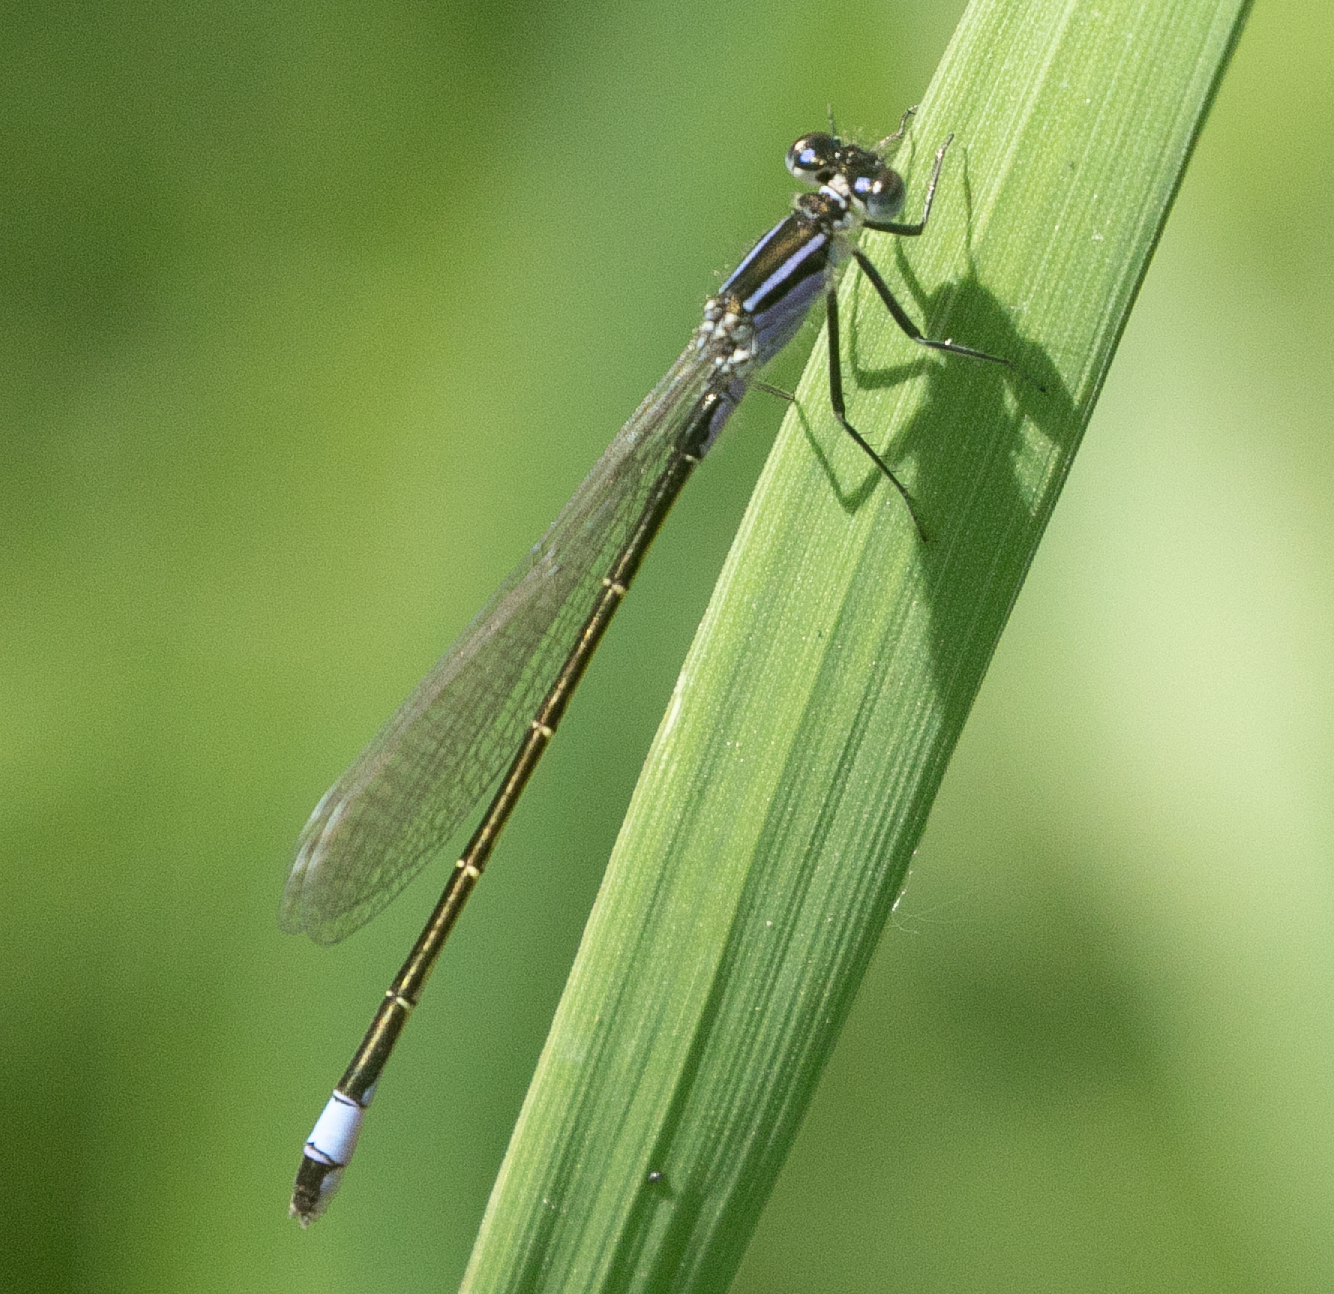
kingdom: Animalia
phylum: Arthropoda
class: Insecta
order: Odonata
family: Coenagrionidae
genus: Ischnura
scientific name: Ischnura elegans
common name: Blue-tailed damselfly
